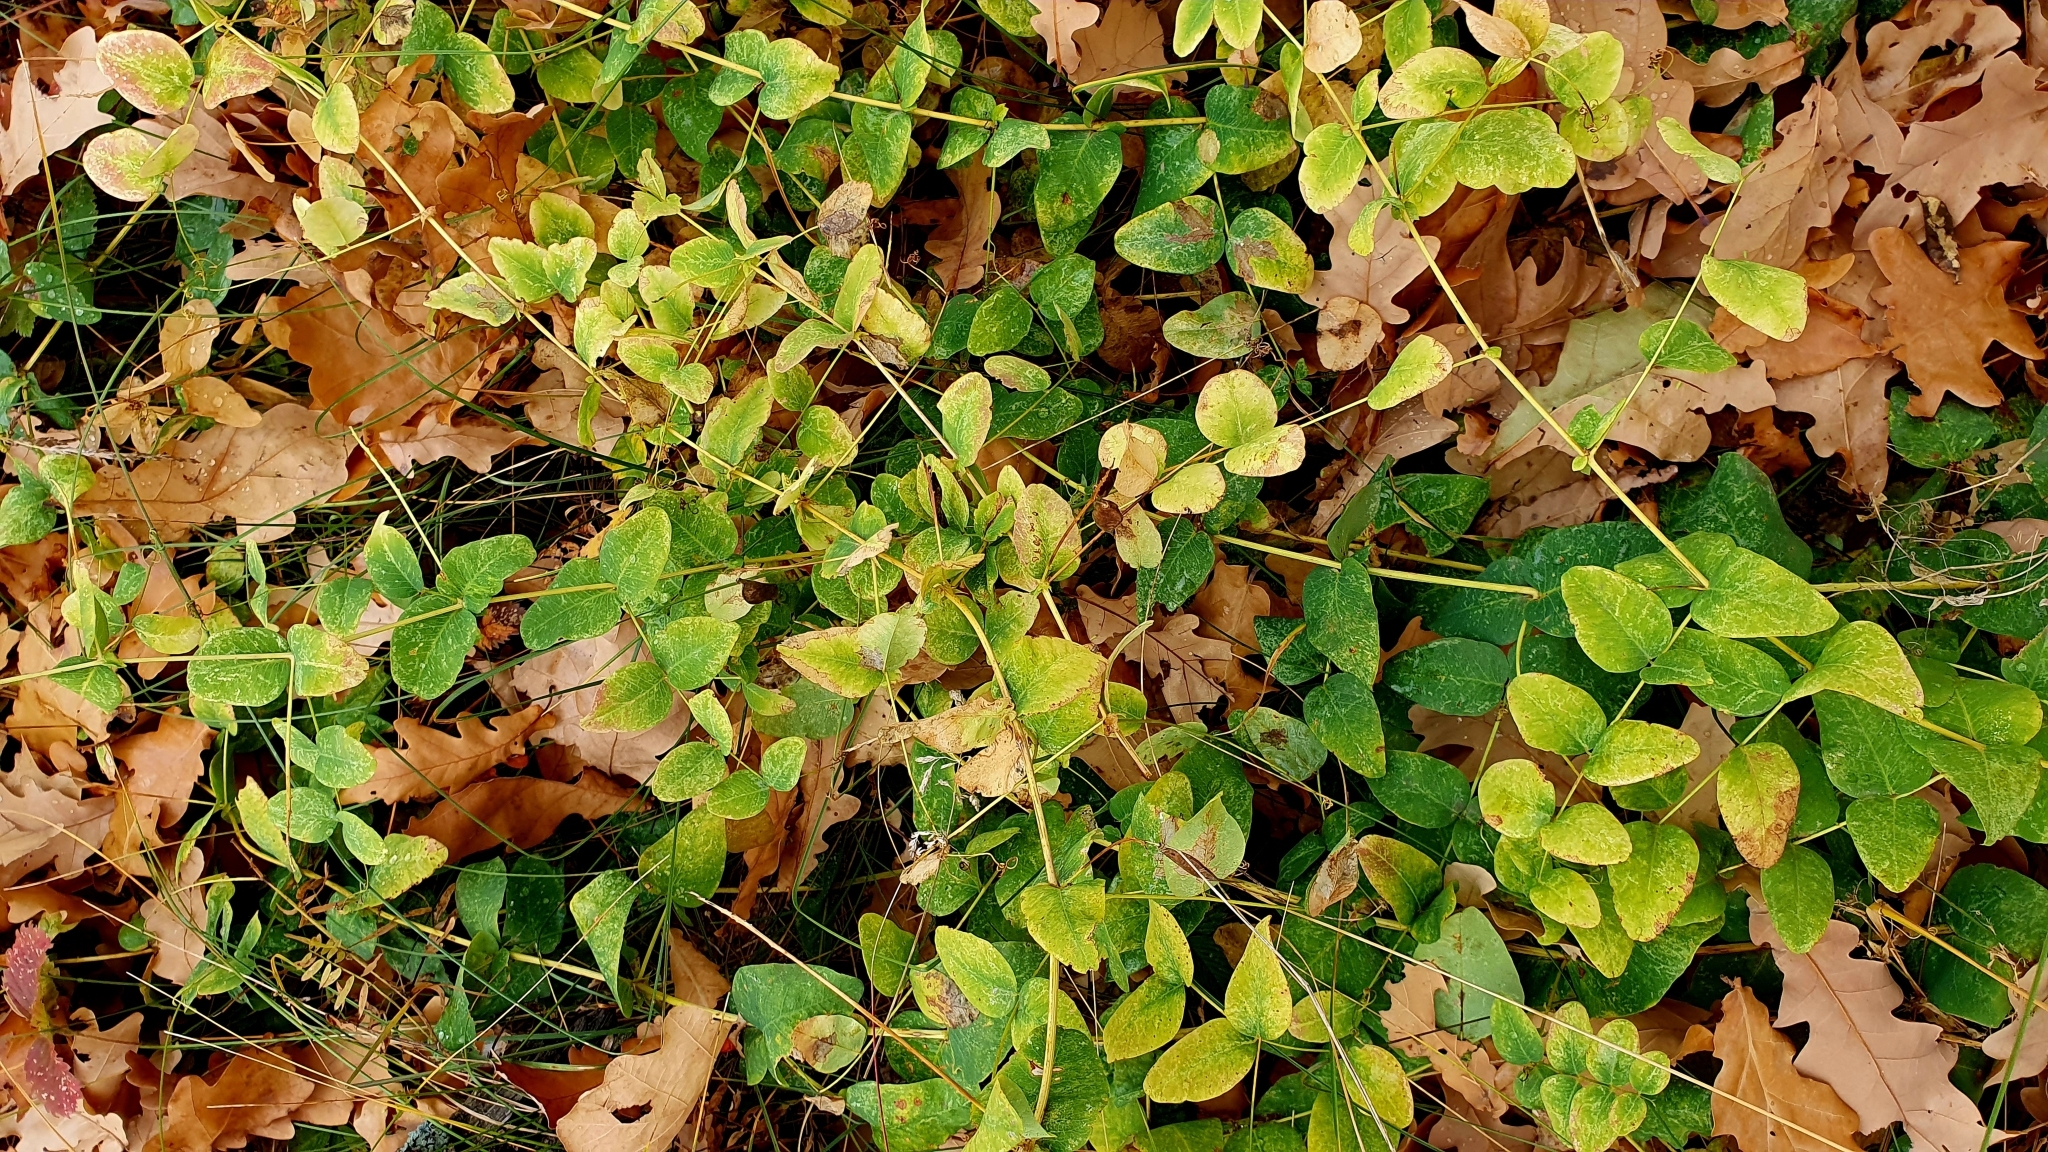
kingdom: Plantae
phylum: Tracheophyta
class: Magnoliopsida
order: Fabales
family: Fabaceae
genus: Vicia
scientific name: Vicia pisiformis
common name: Pale-flower vetch
